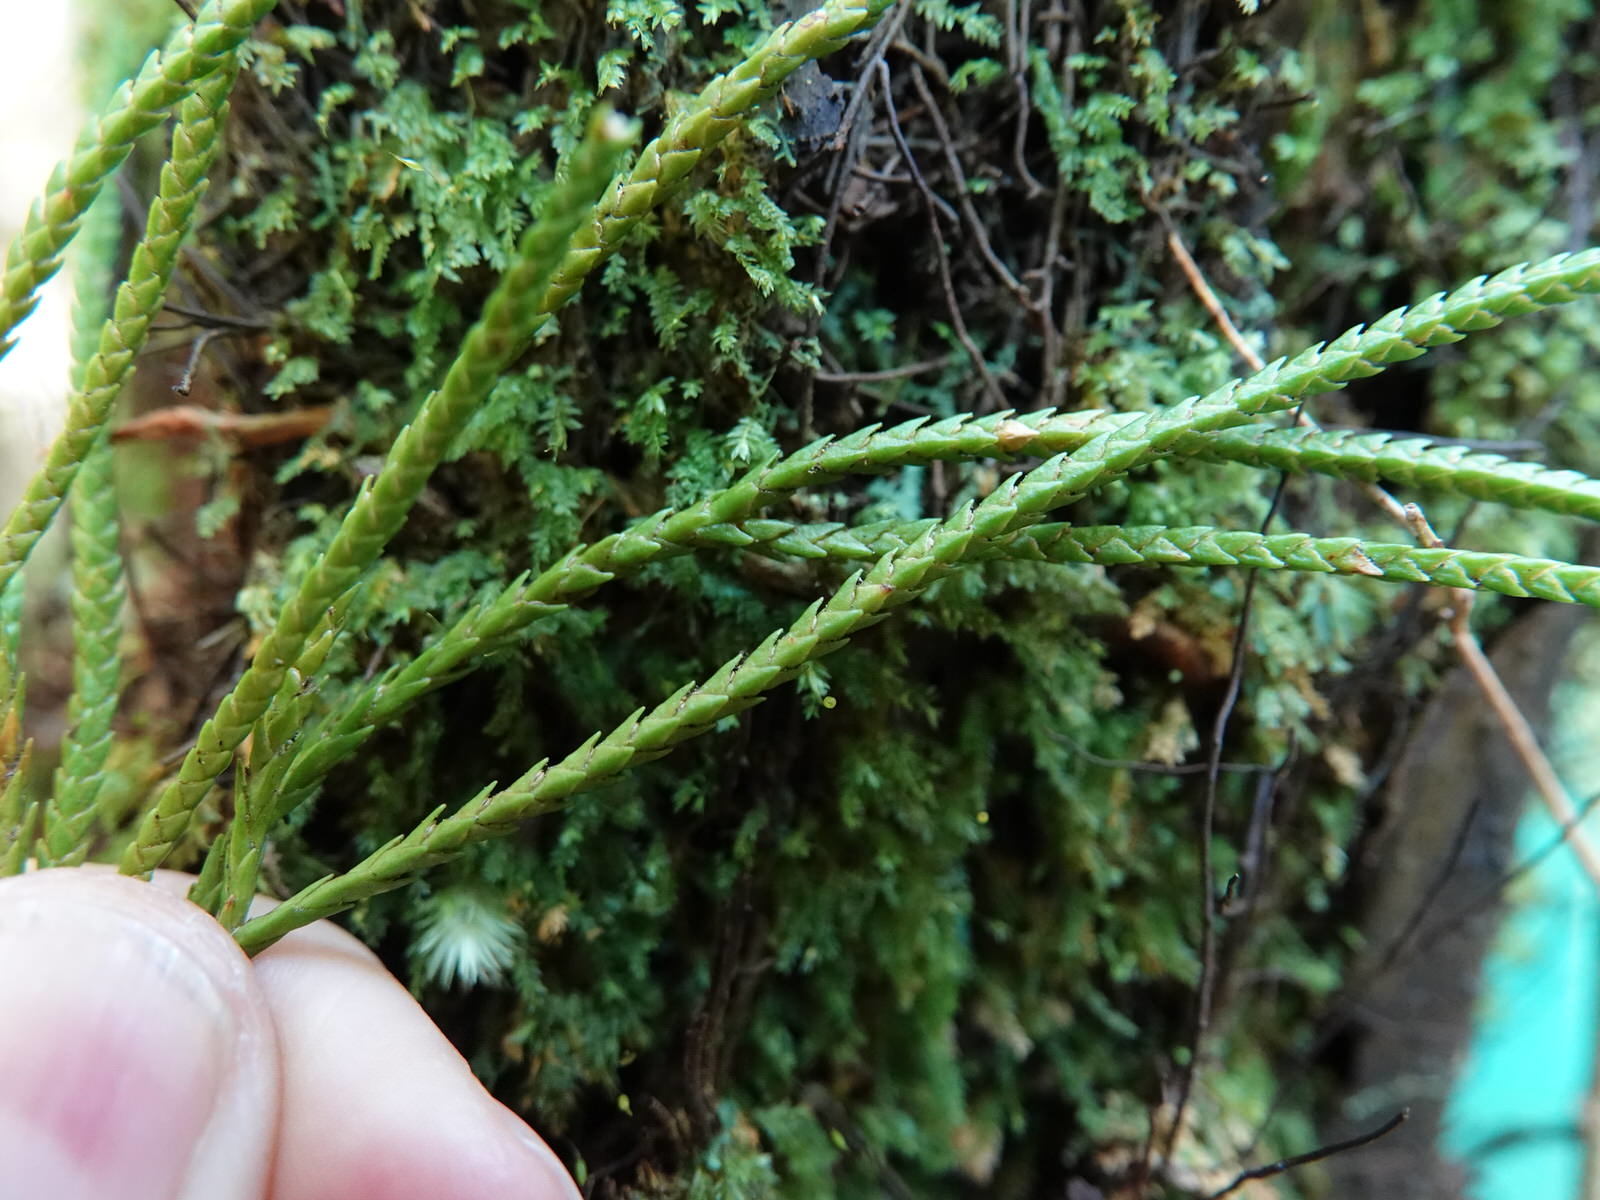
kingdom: Plantae
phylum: Tracheophyta
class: Lycopodiopsida
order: Lycopodiales
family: Lycopodiaceae
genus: Phlegmariurus
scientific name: Phlegmariurus billardierei
